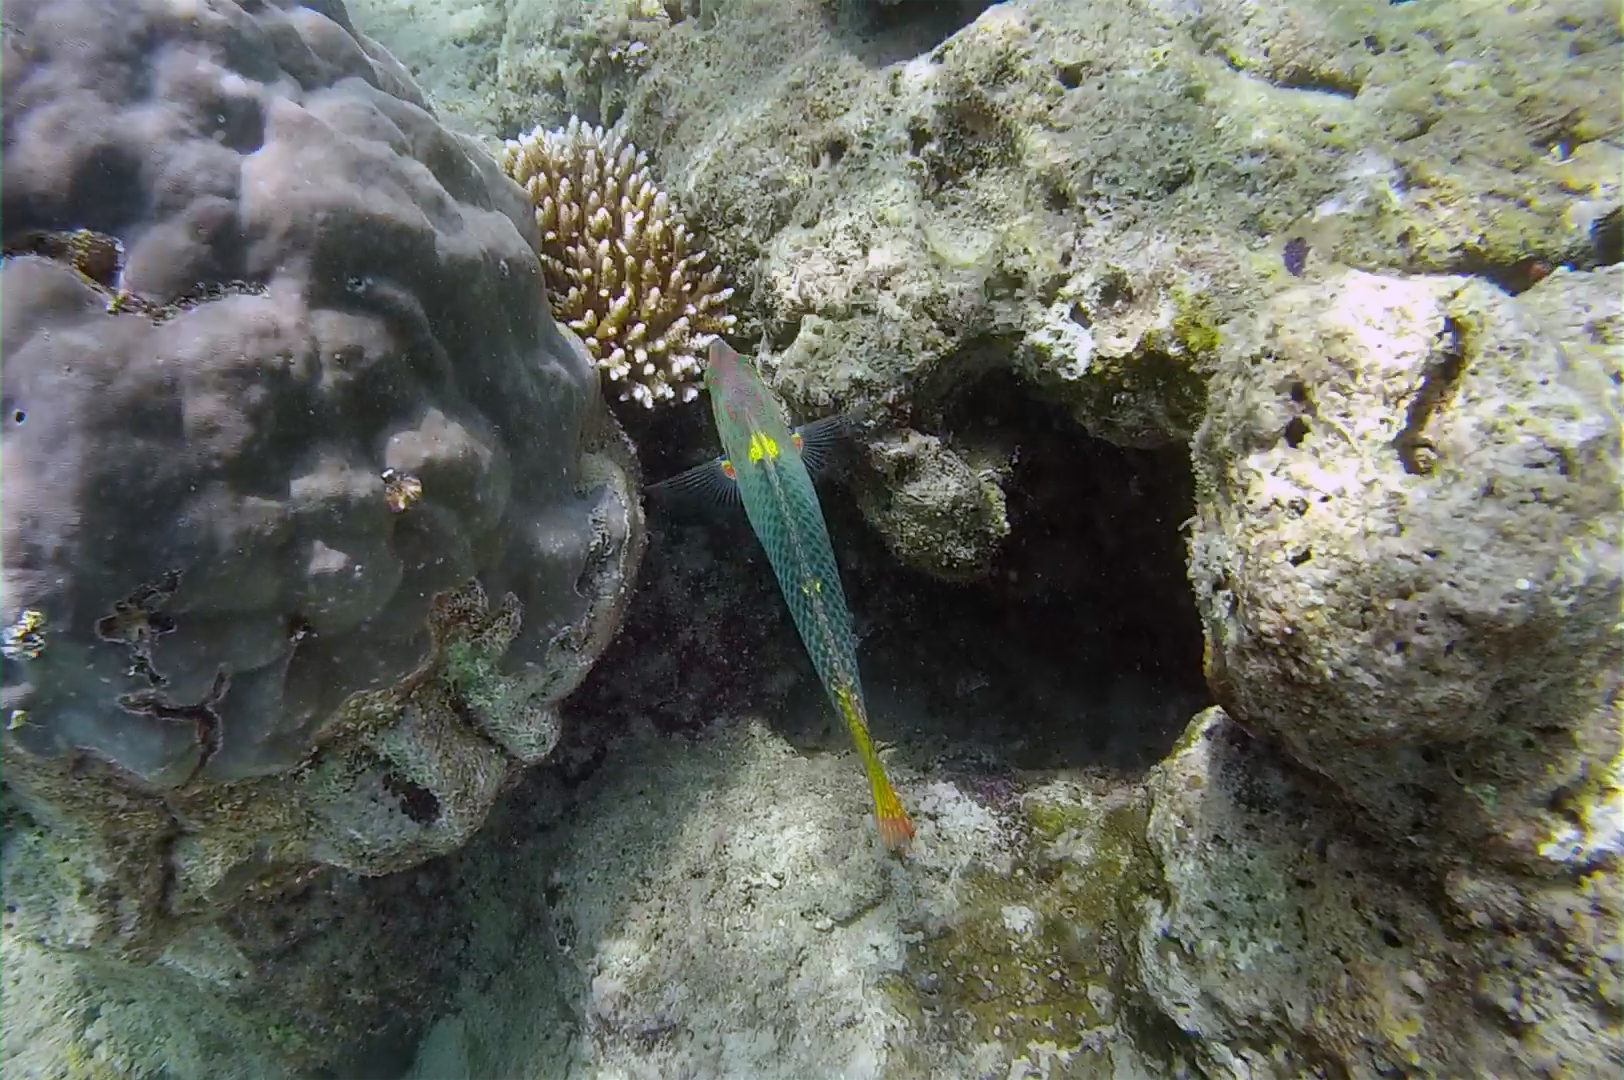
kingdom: Animalia
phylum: Chordata
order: Perciformes
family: Labridae
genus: Halichoeres
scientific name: Halichoeres hortulanus
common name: Checkerboard wrasse
